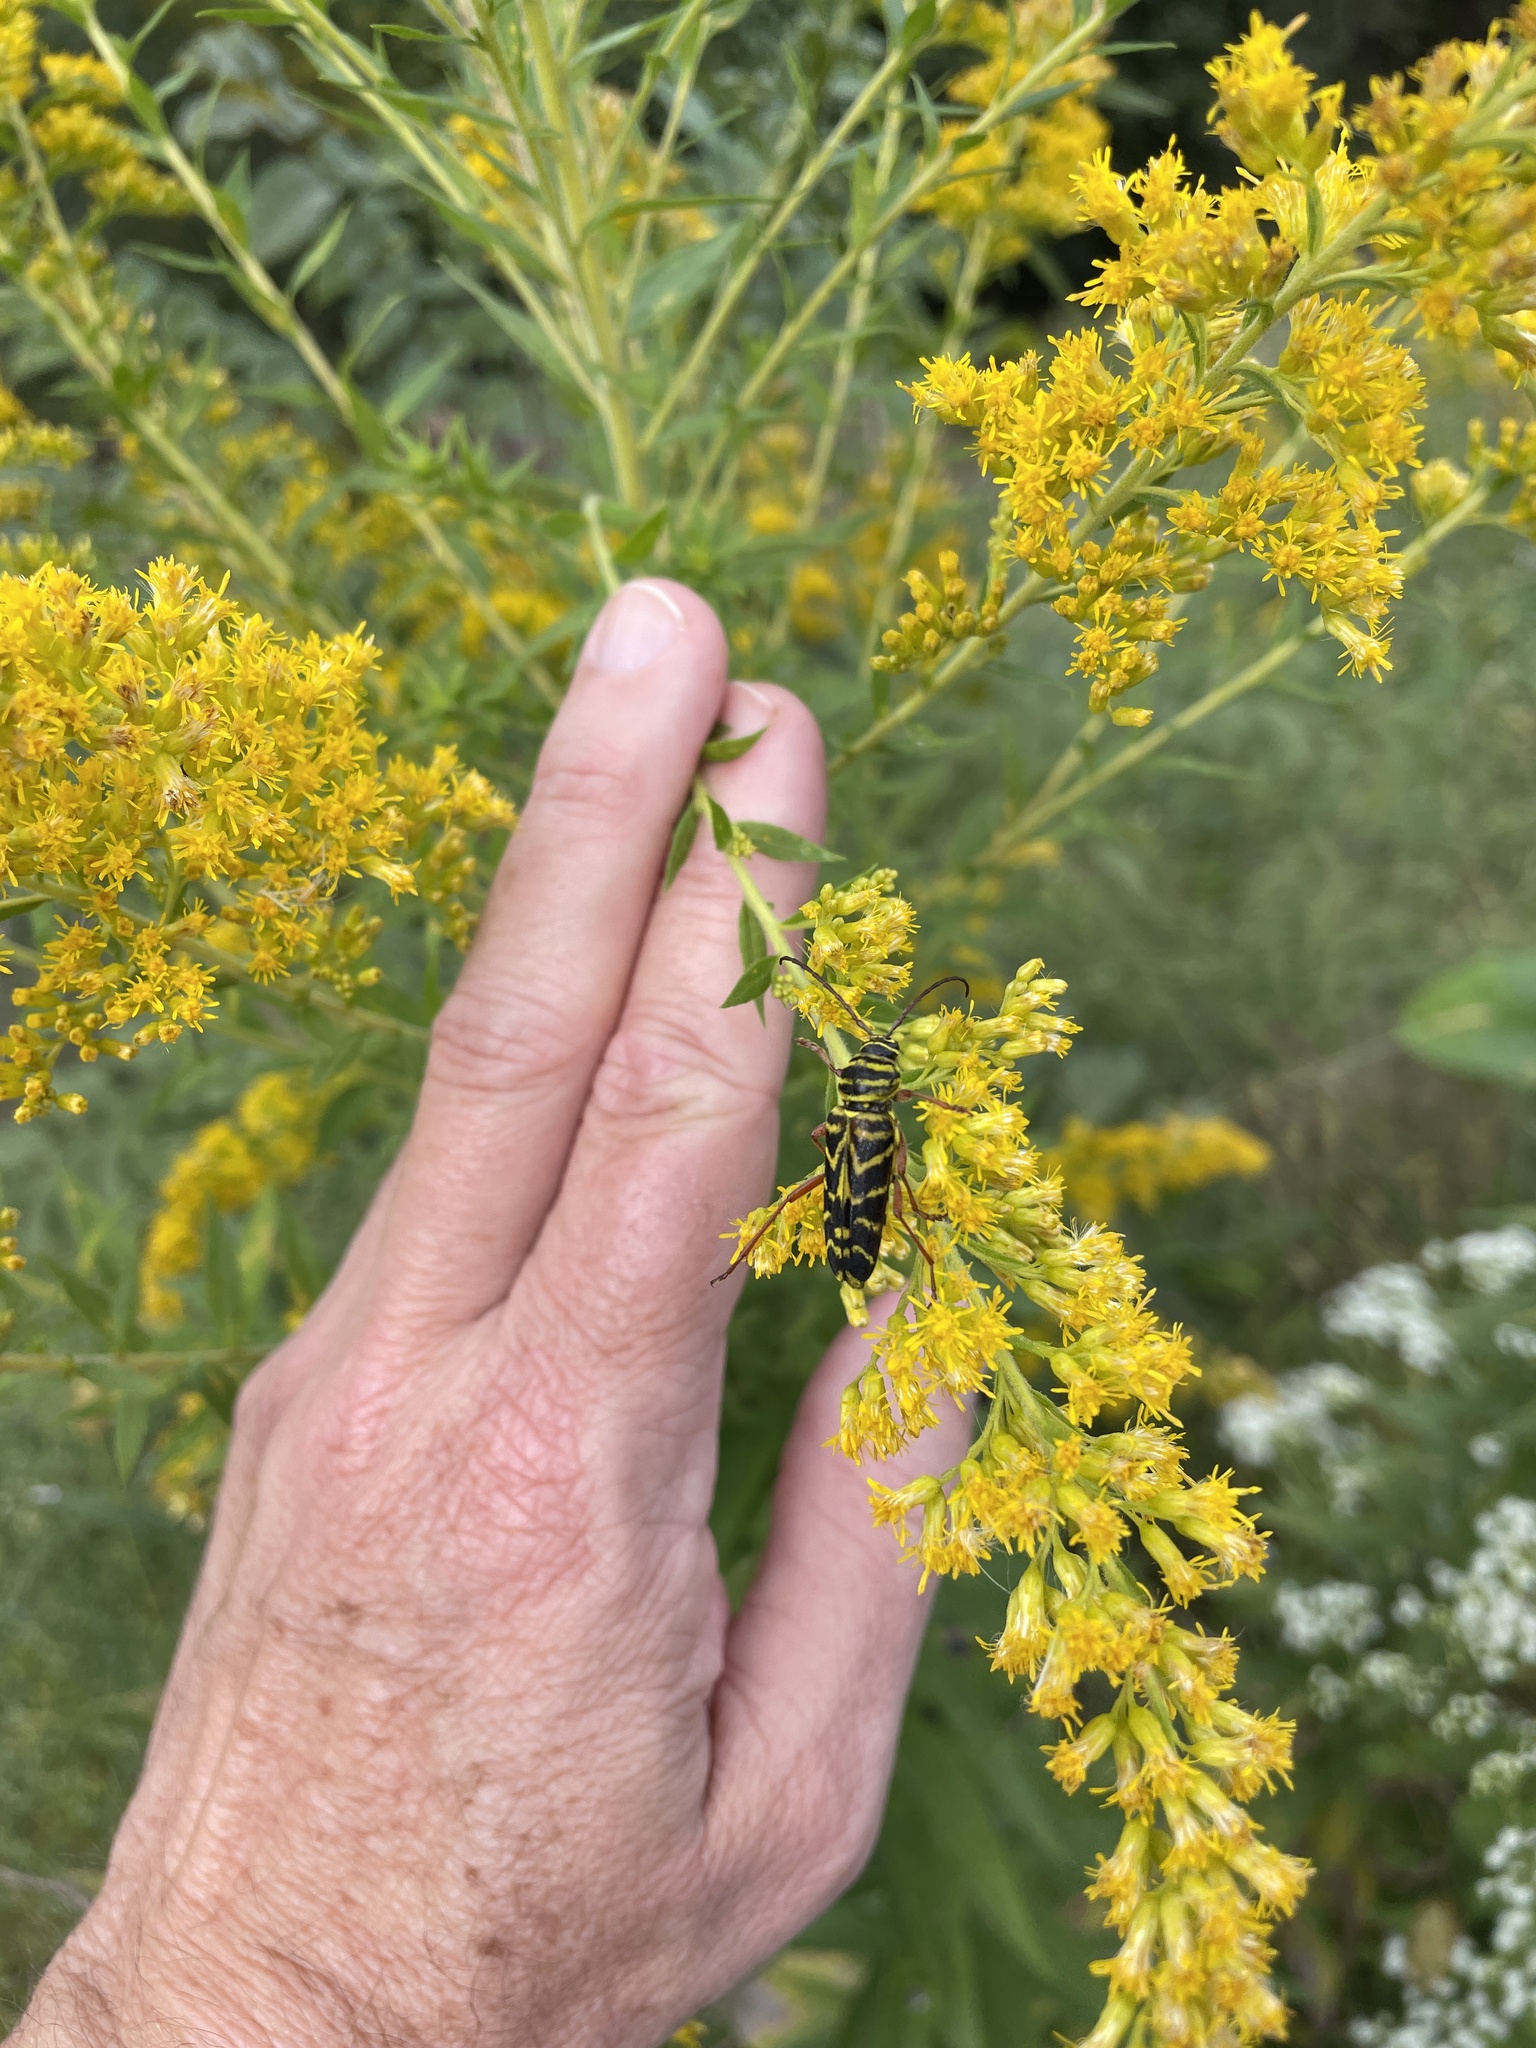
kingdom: Animalia
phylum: Arthropoda
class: Insecta
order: Coleoptera
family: Cerambycidae
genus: Megacyllene
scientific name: Megacyllene robiniae
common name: Locust borer
